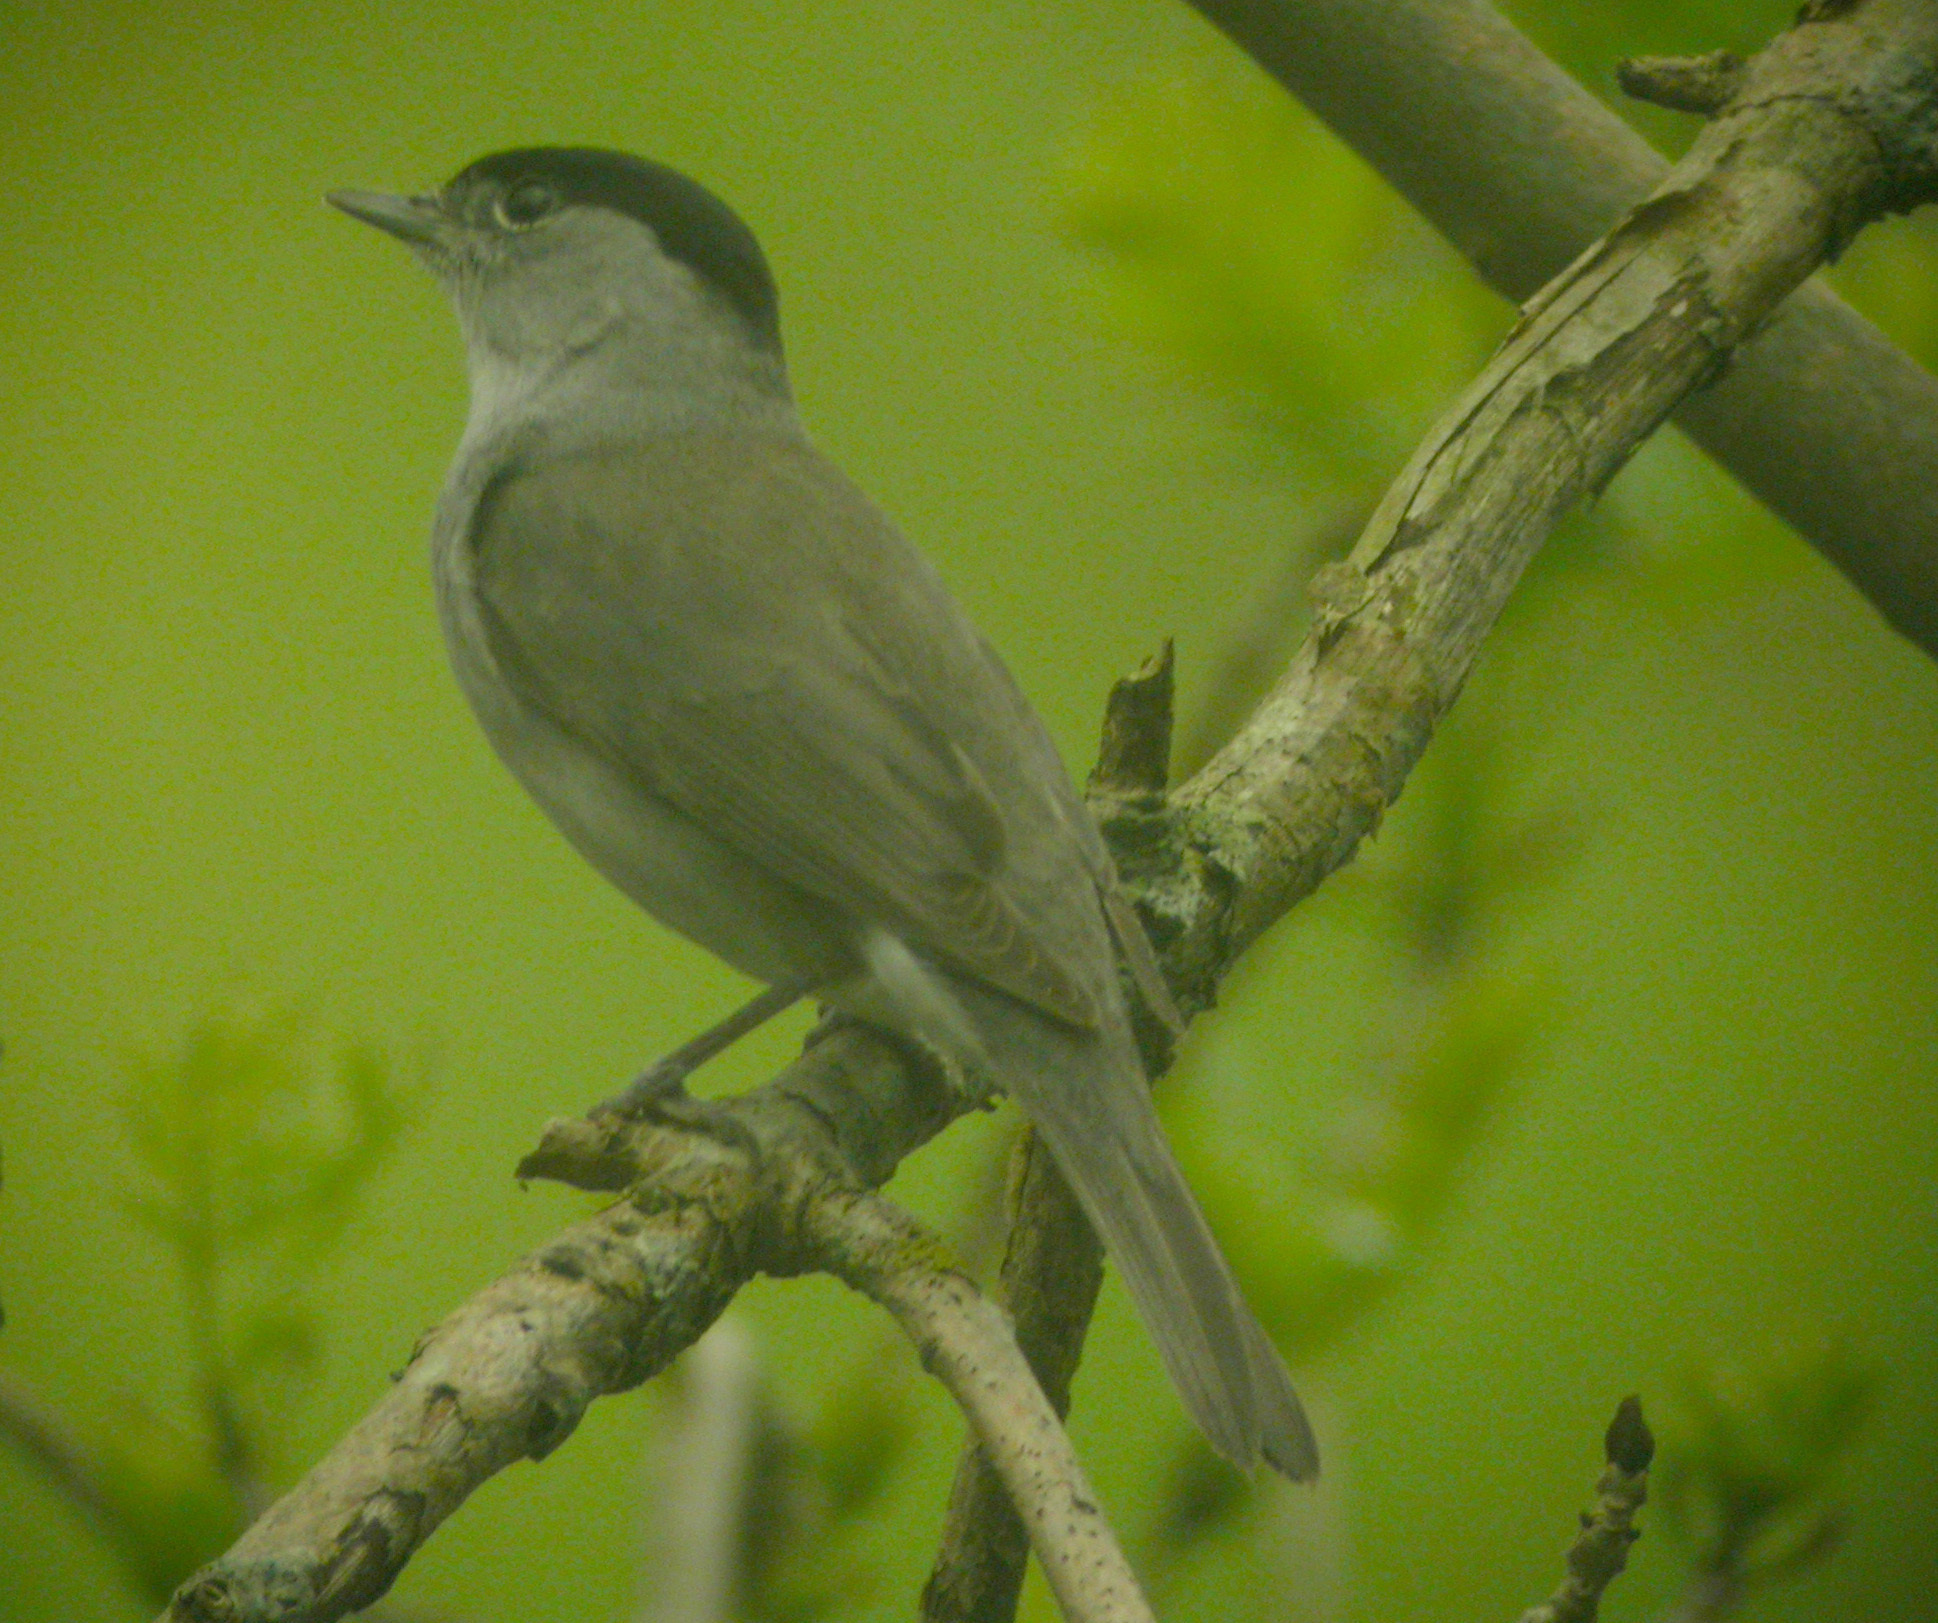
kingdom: Animalia
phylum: Chordata
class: Aves
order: Passeriformes
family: Sylviidae
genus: Sylvia
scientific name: Sylvia atricapilla
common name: Eurasian blackcap
